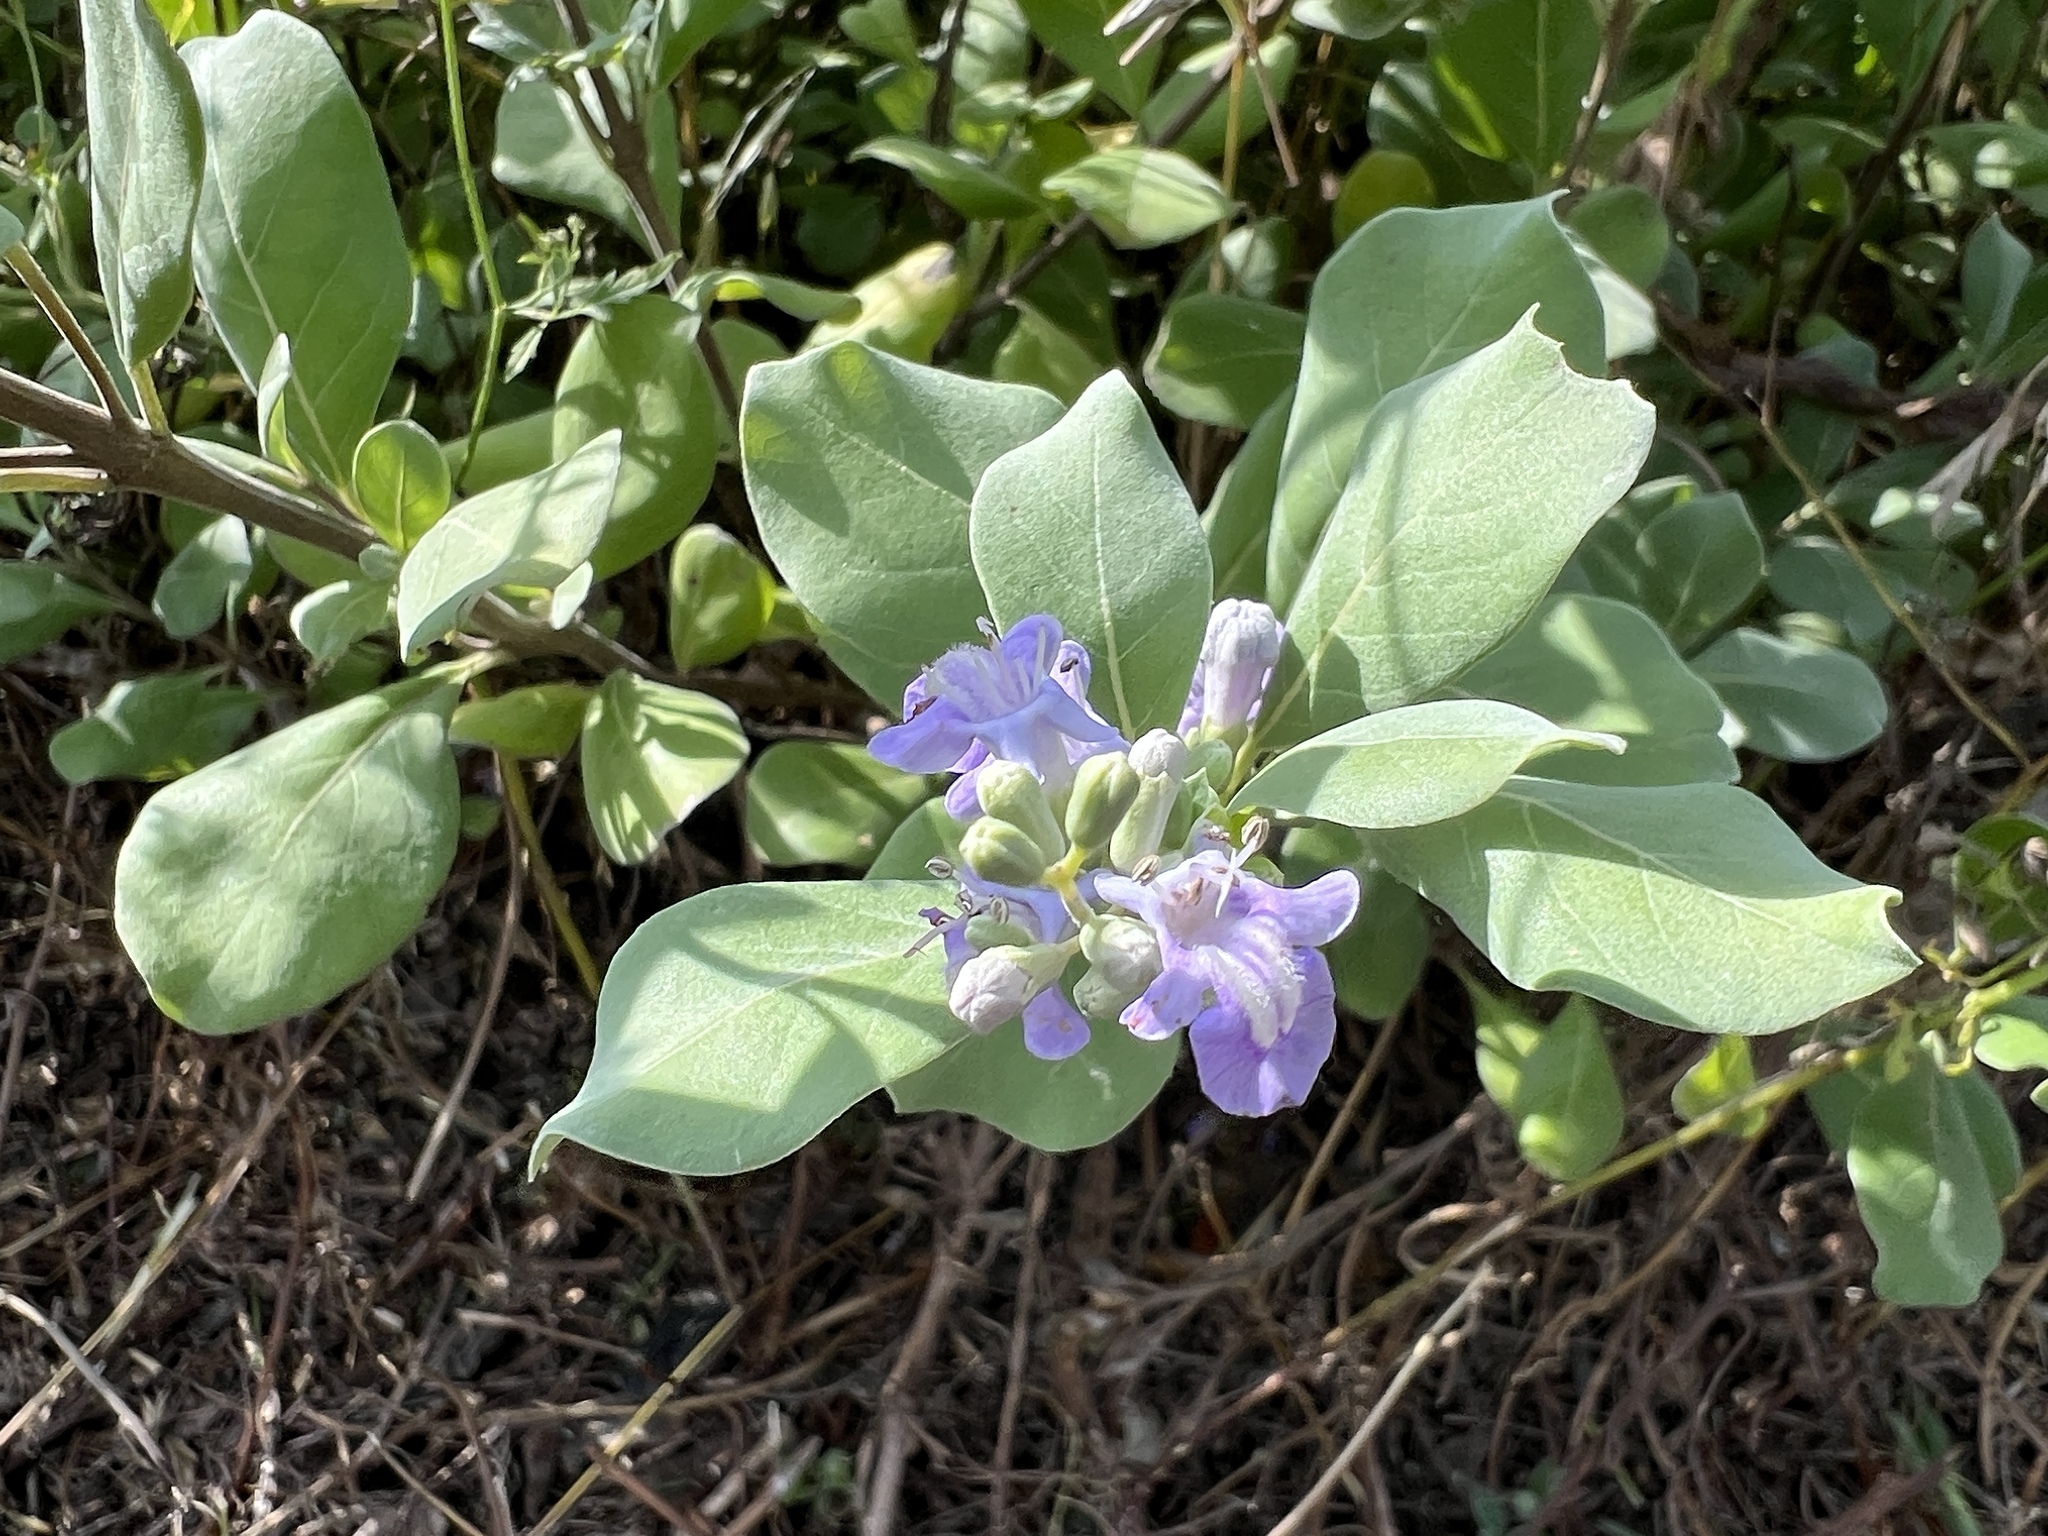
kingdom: Plantae
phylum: Tracheophyta
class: Magnoliopsida
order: Lamiales
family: Lamiaceae
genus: Vitex
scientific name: Vitex rotundifolia
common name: Beach vitex
